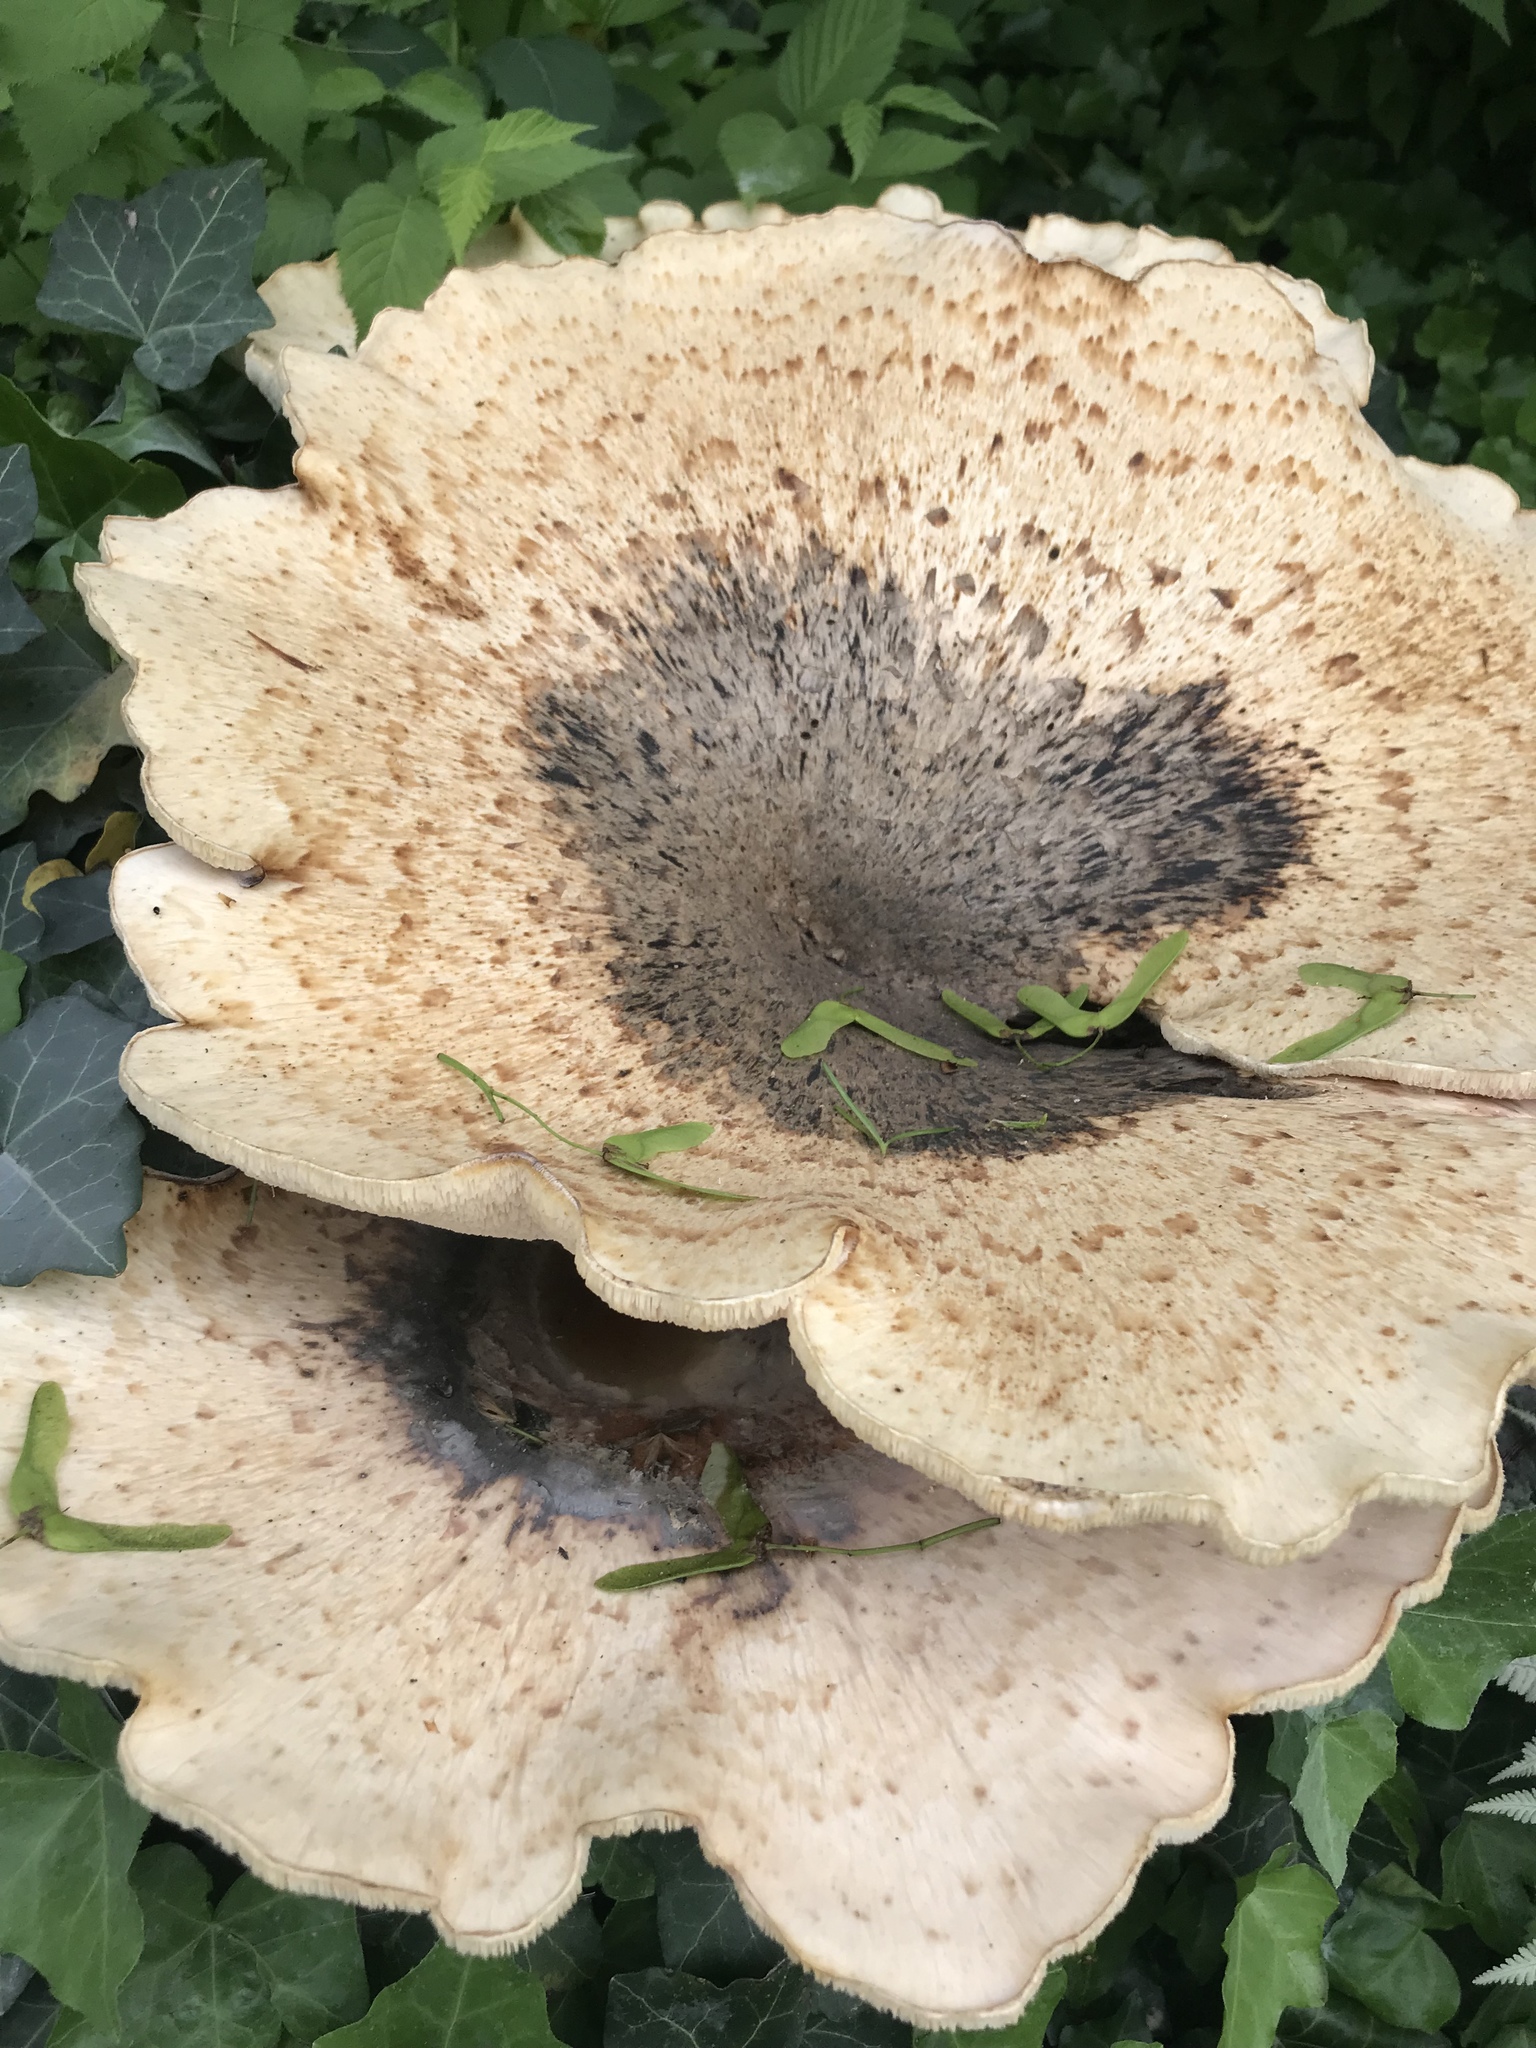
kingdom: Fungi
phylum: Basidiomycota
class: Agaricomycetes
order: Polyporales
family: Polyporaceae
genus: Cerioporus
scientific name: Cerioporus squamosus
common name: Dryad's saddle
